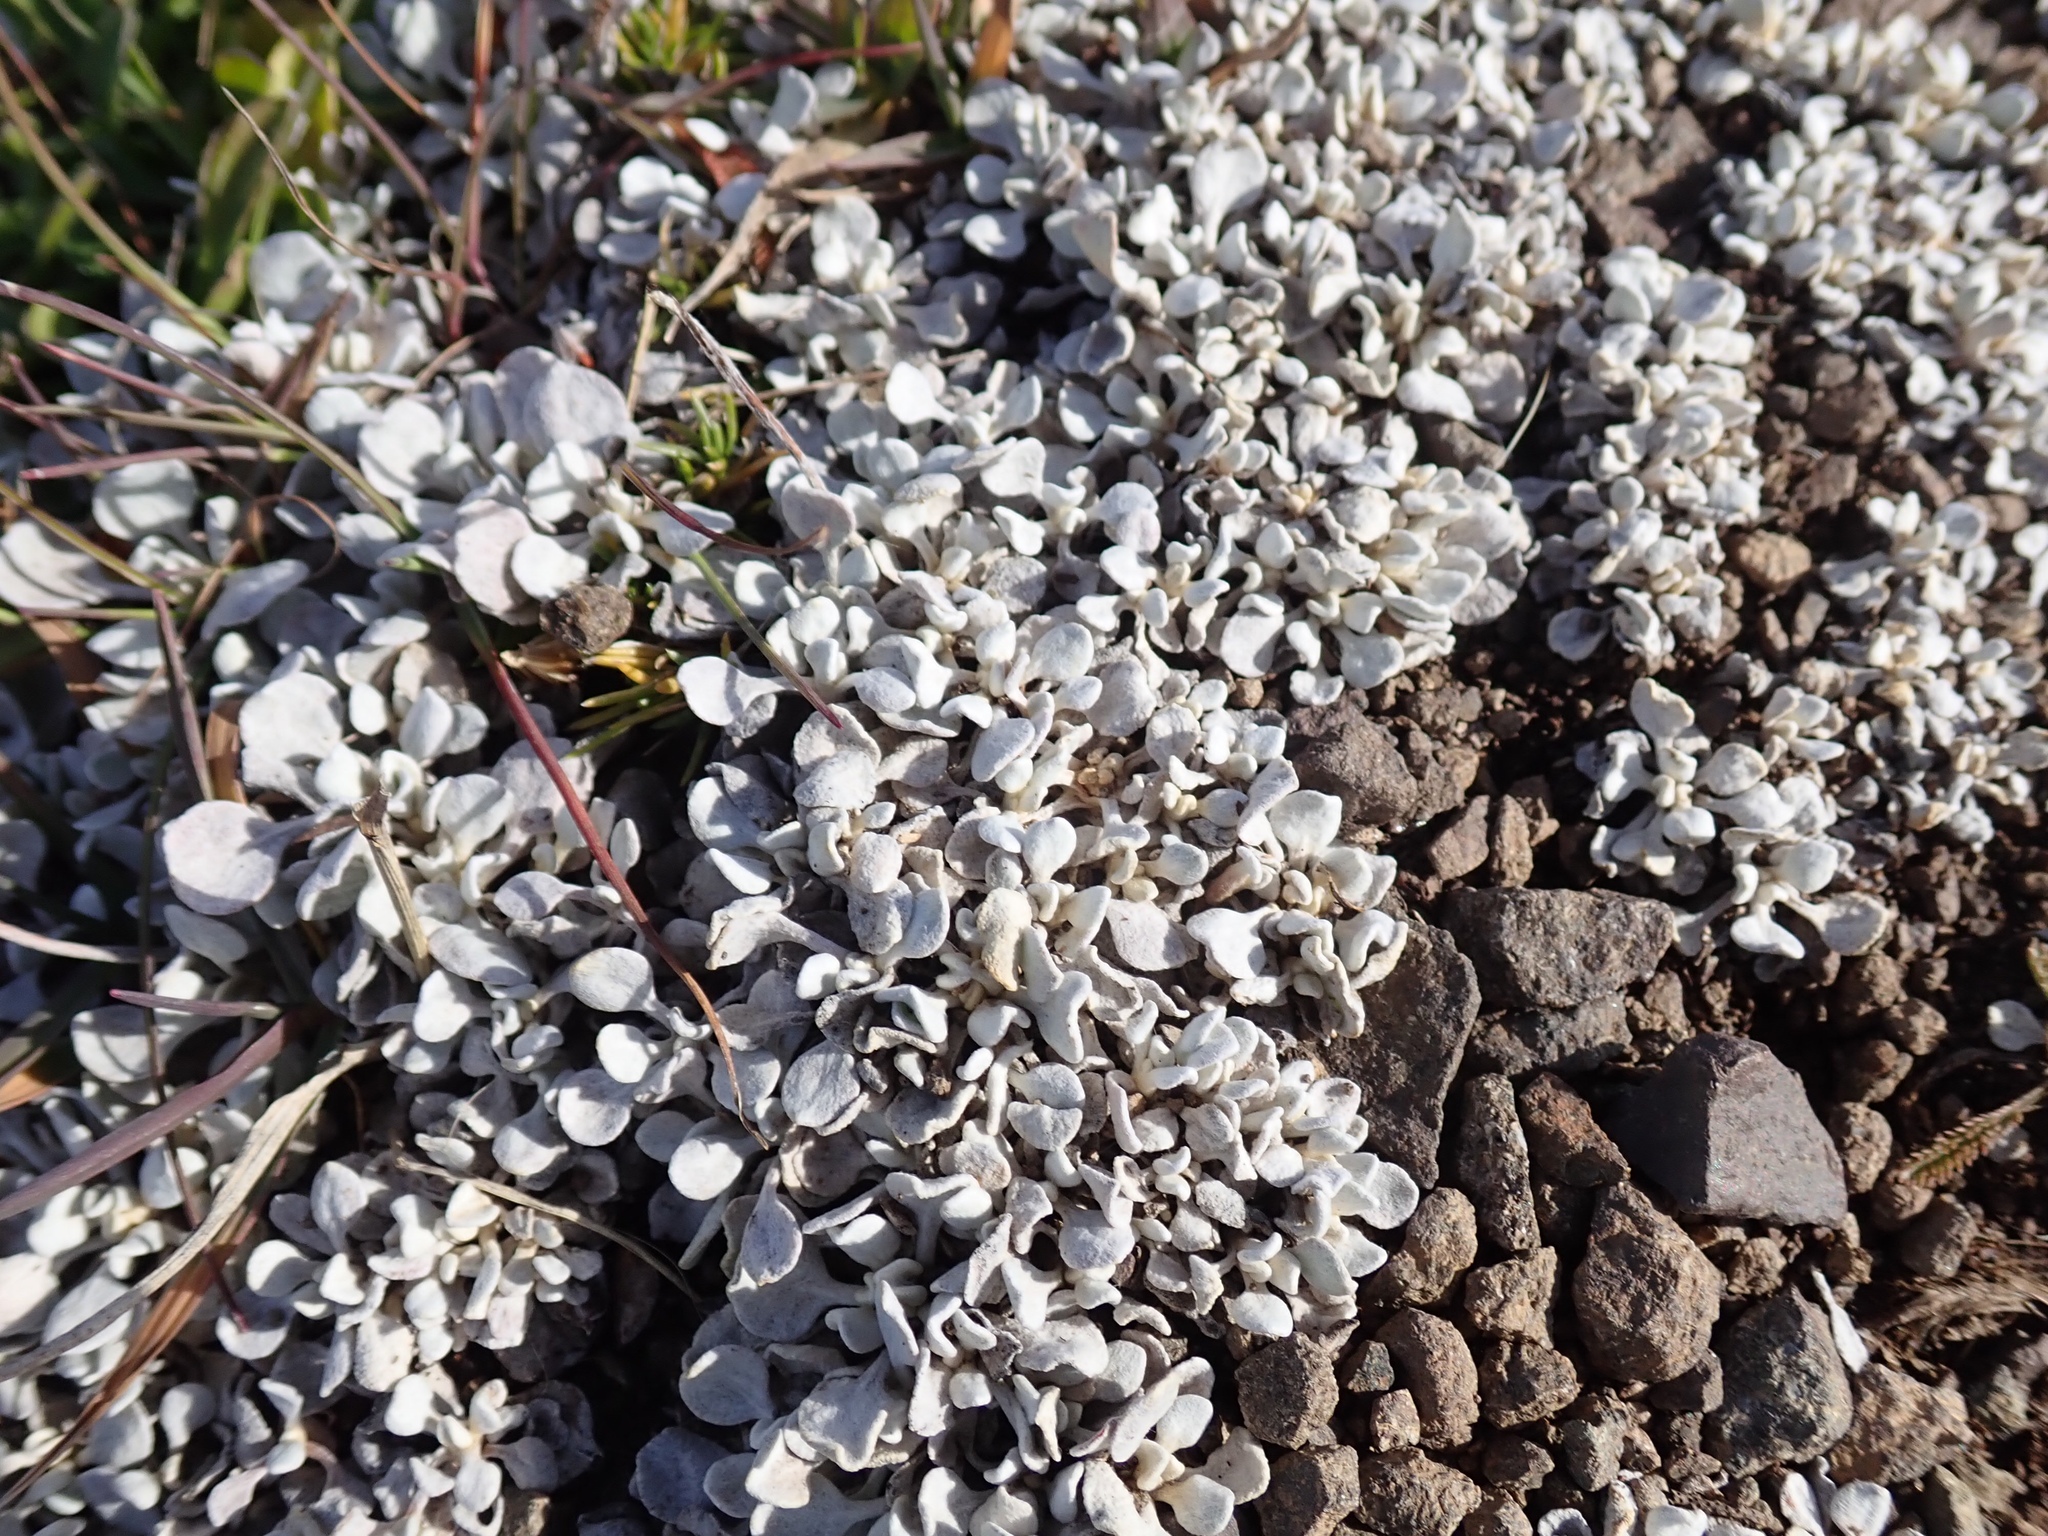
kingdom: Plantae
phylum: Tracheophyta
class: Magnoliopsida
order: Caryophyllales
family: Polygonaceae
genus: Eriogonum
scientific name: Eriogonum ovalifolium
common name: Cushion buckwheat
